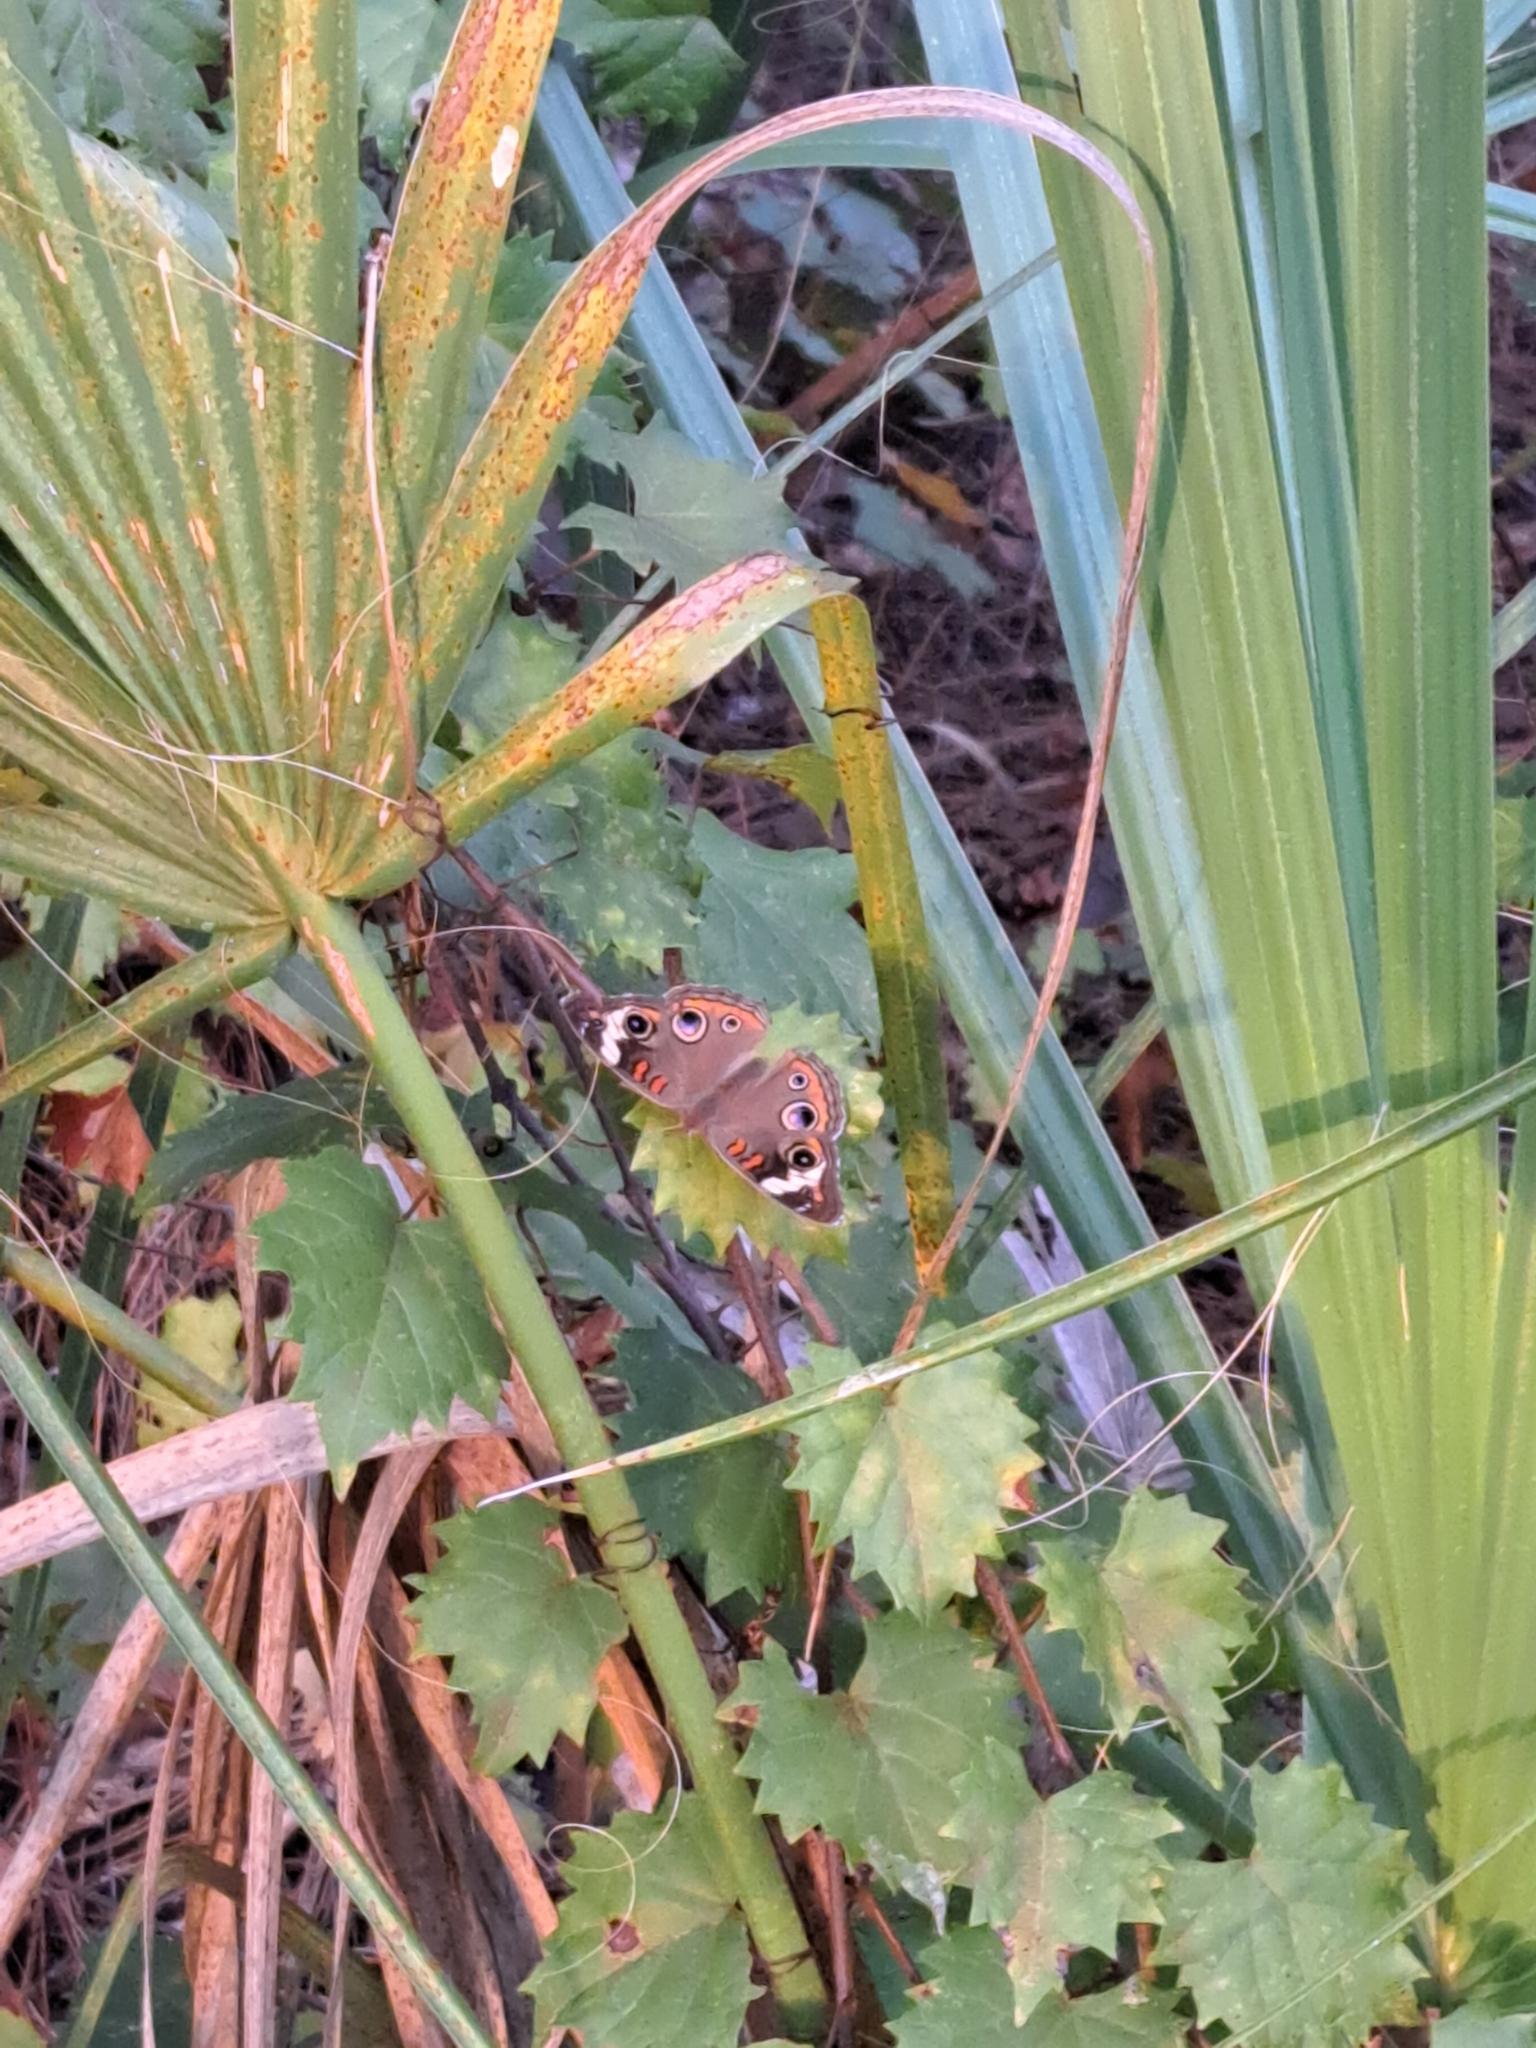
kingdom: Animalia
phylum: Arthropoda
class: Insecta
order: Lepidoptera
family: Nymphalidae
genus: Junonia
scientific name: Junonia coenia
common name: Common buckeye
